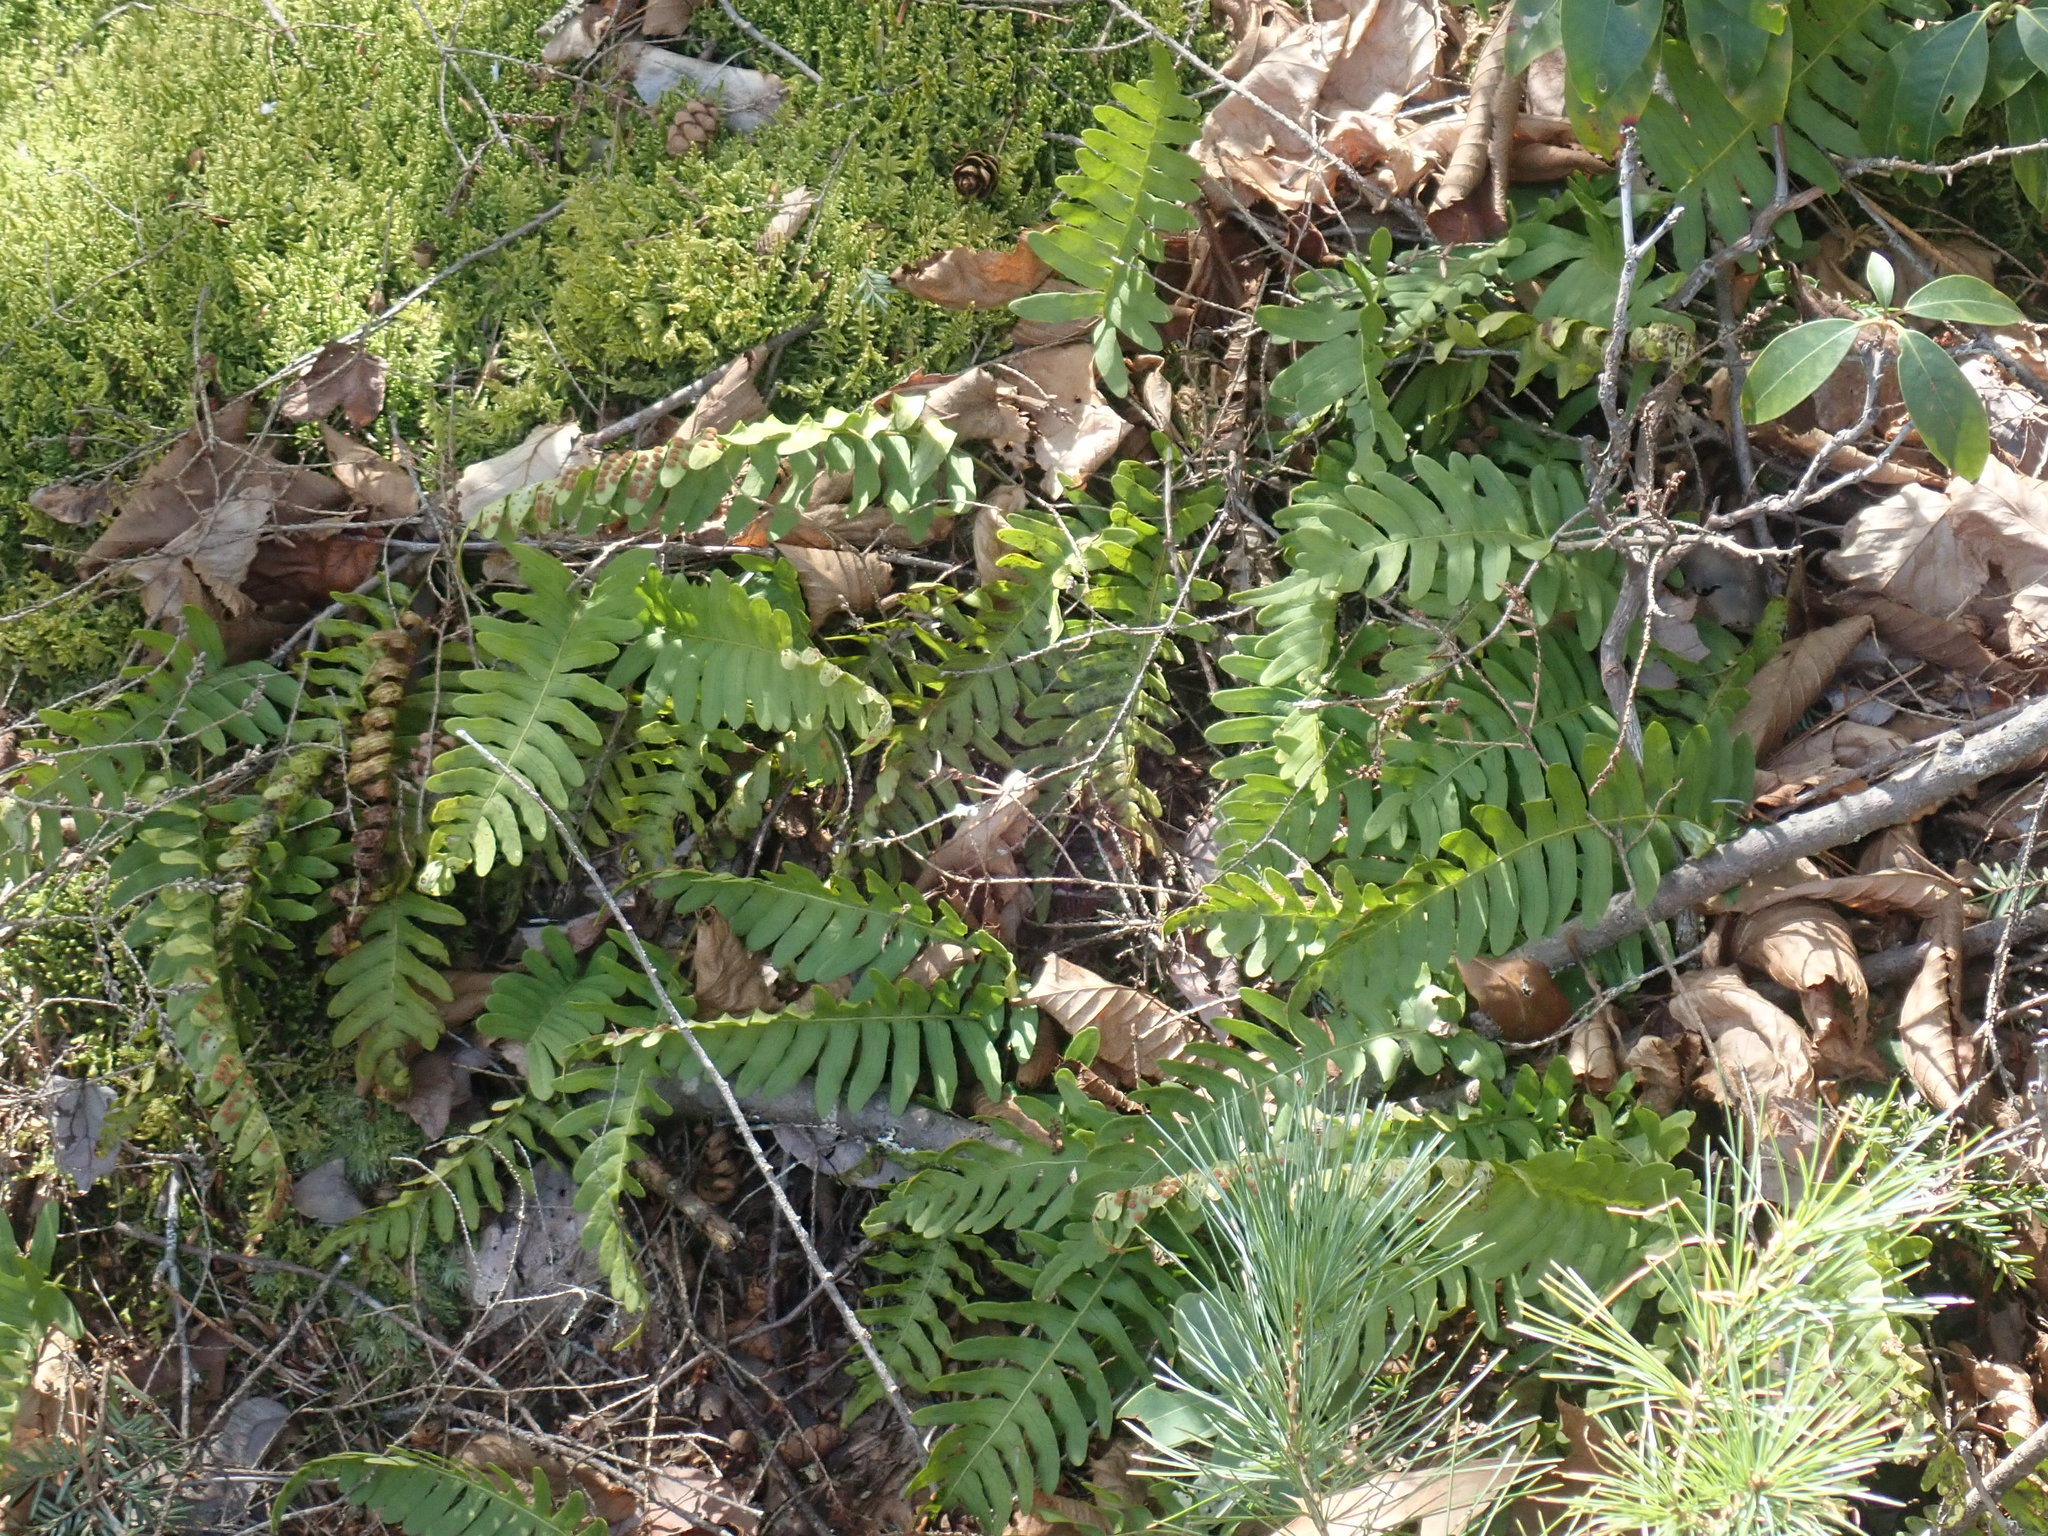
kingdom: Plantae
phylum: Tracheophyta
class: Polypodiopsida
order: Polypodiales
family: Polypodiaceae
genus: Polypodium
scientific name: Polypodium
